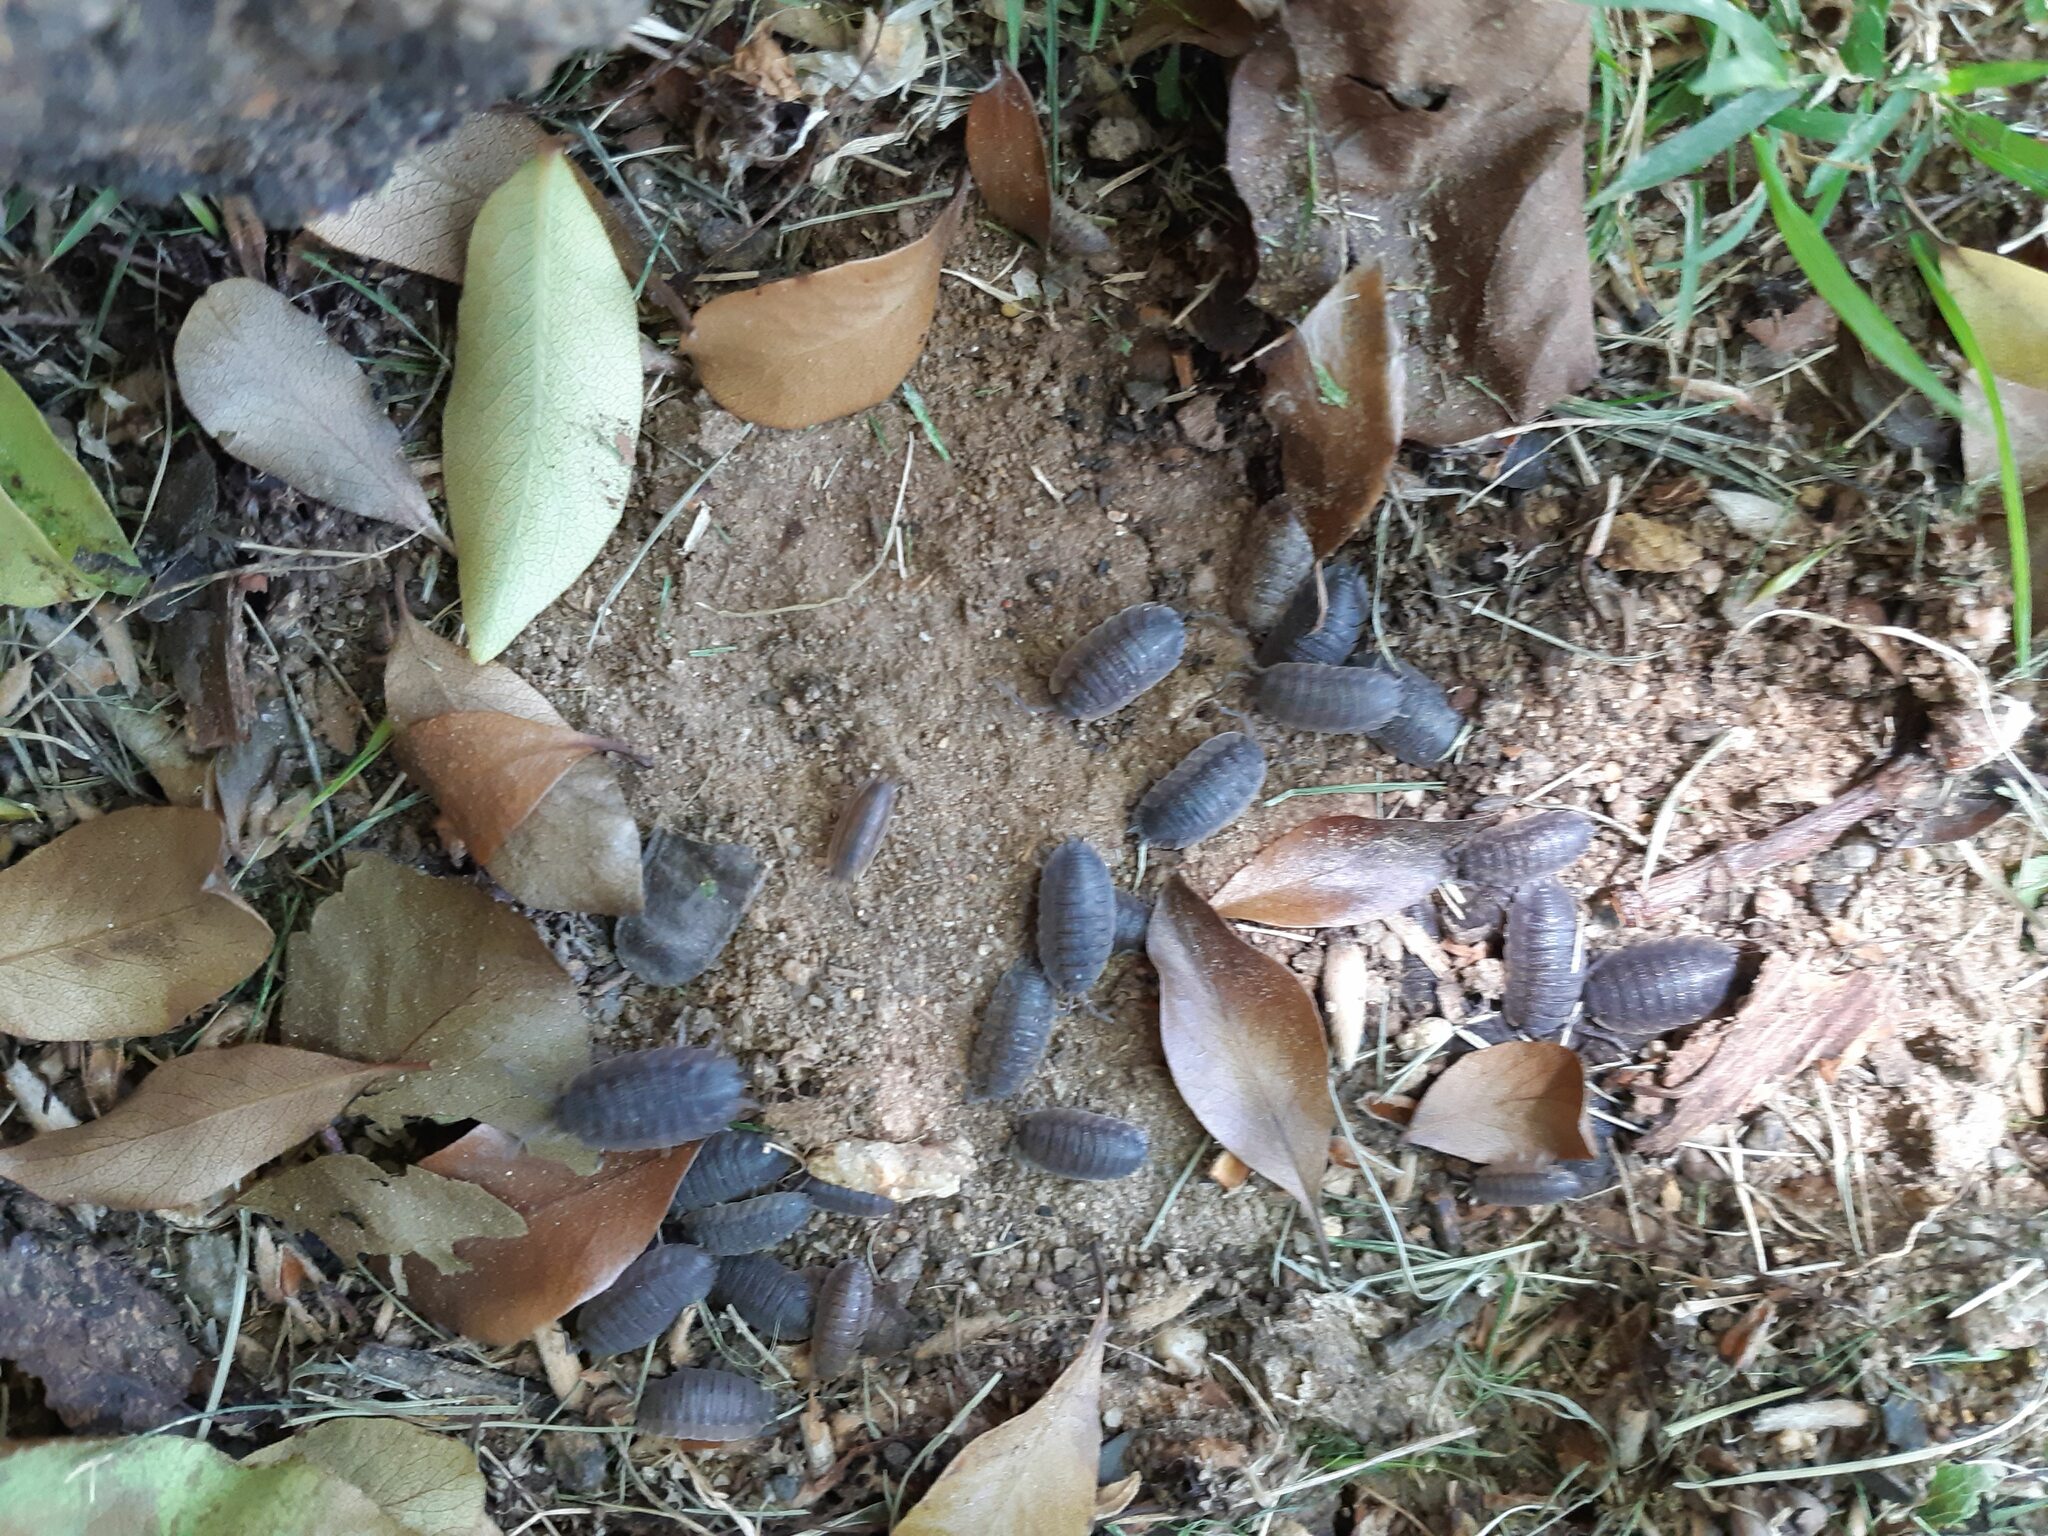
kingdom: Animalia
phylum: Arthropoda
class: Malacostraca
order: Isopoda
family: Porcellionidae
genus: Porcellio
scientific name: Porcellio scaber
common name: Common rough woodlouse
